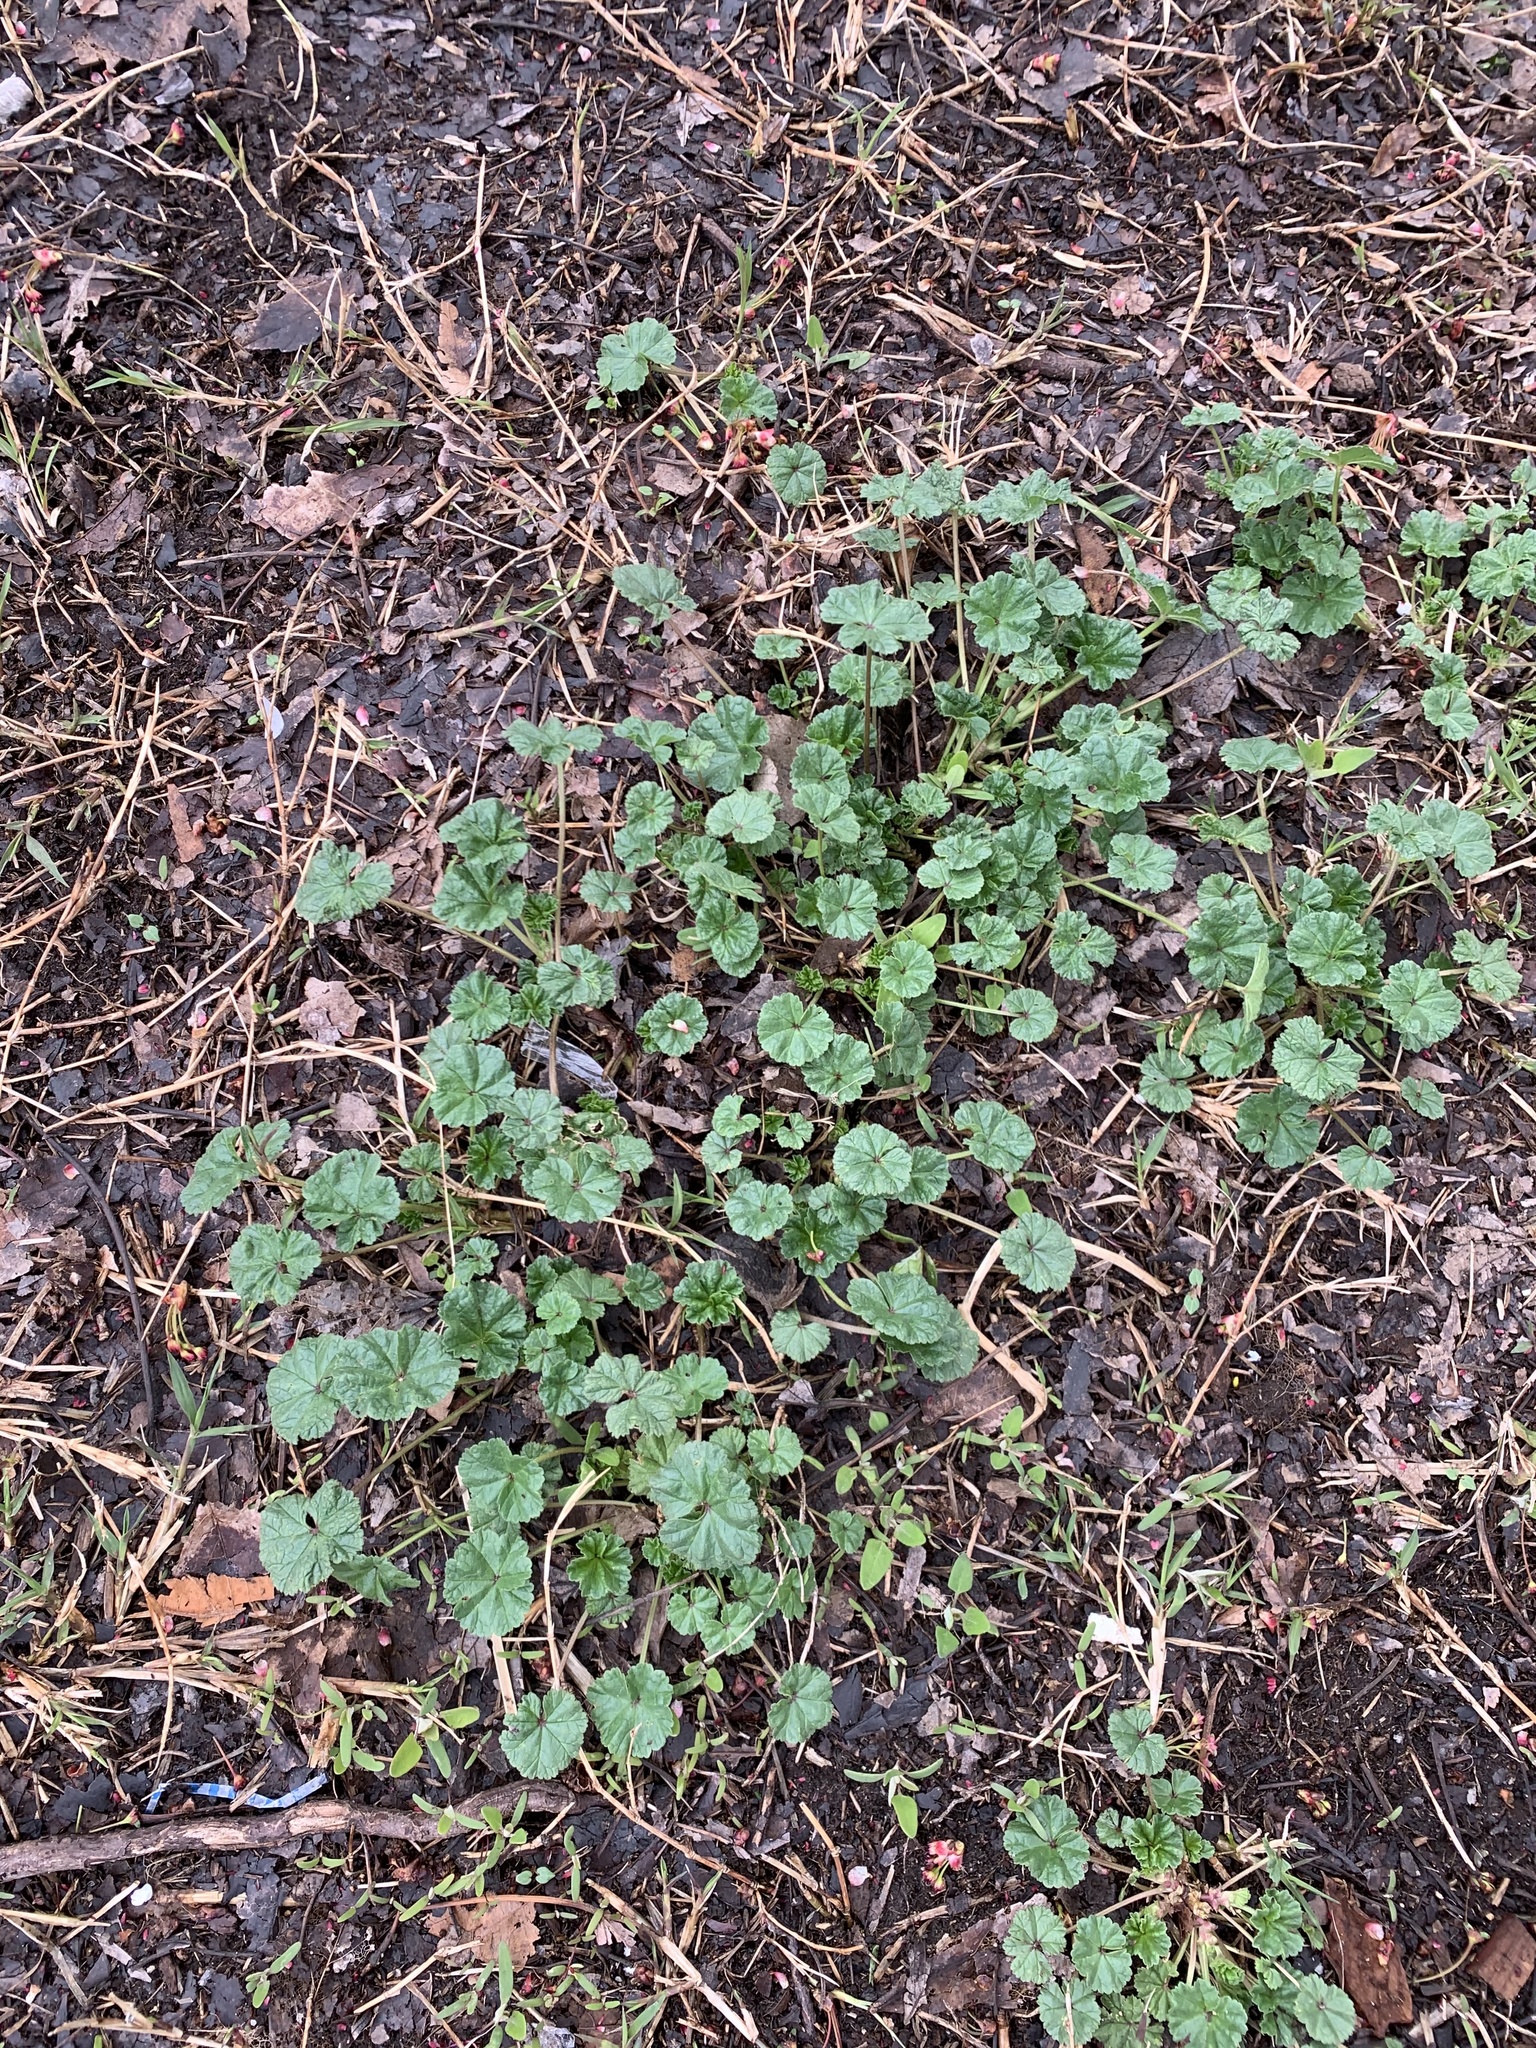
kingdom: Plantae
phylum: Tracheophyta
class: Magnoliopsida
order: Malvales
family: Malvaceae
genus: Malva
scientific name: Malva neglecta
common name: Common mallow
